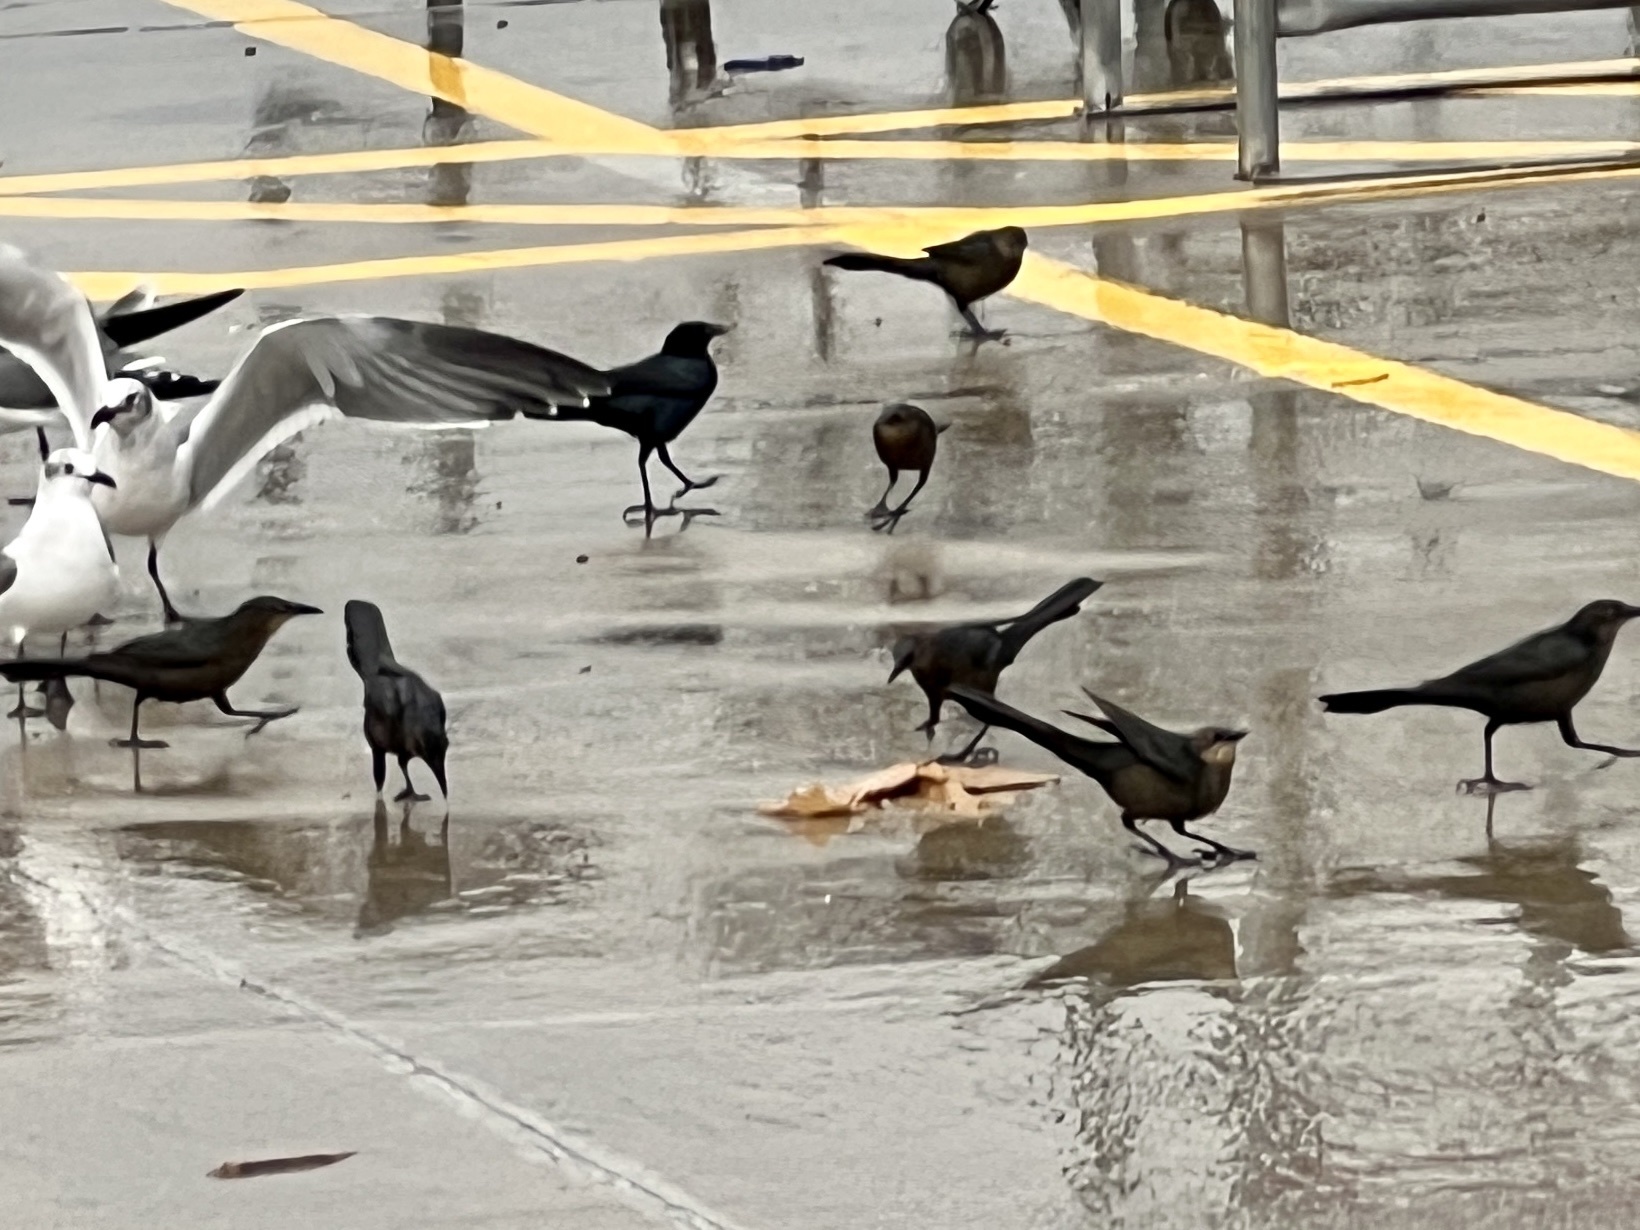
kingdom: Animalia
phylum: Chordata
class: Aves
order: Passeriformes
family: Icteridae
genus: Quiscalus
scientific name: Quiscalus mexicanus
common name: Great-tailed grackle
